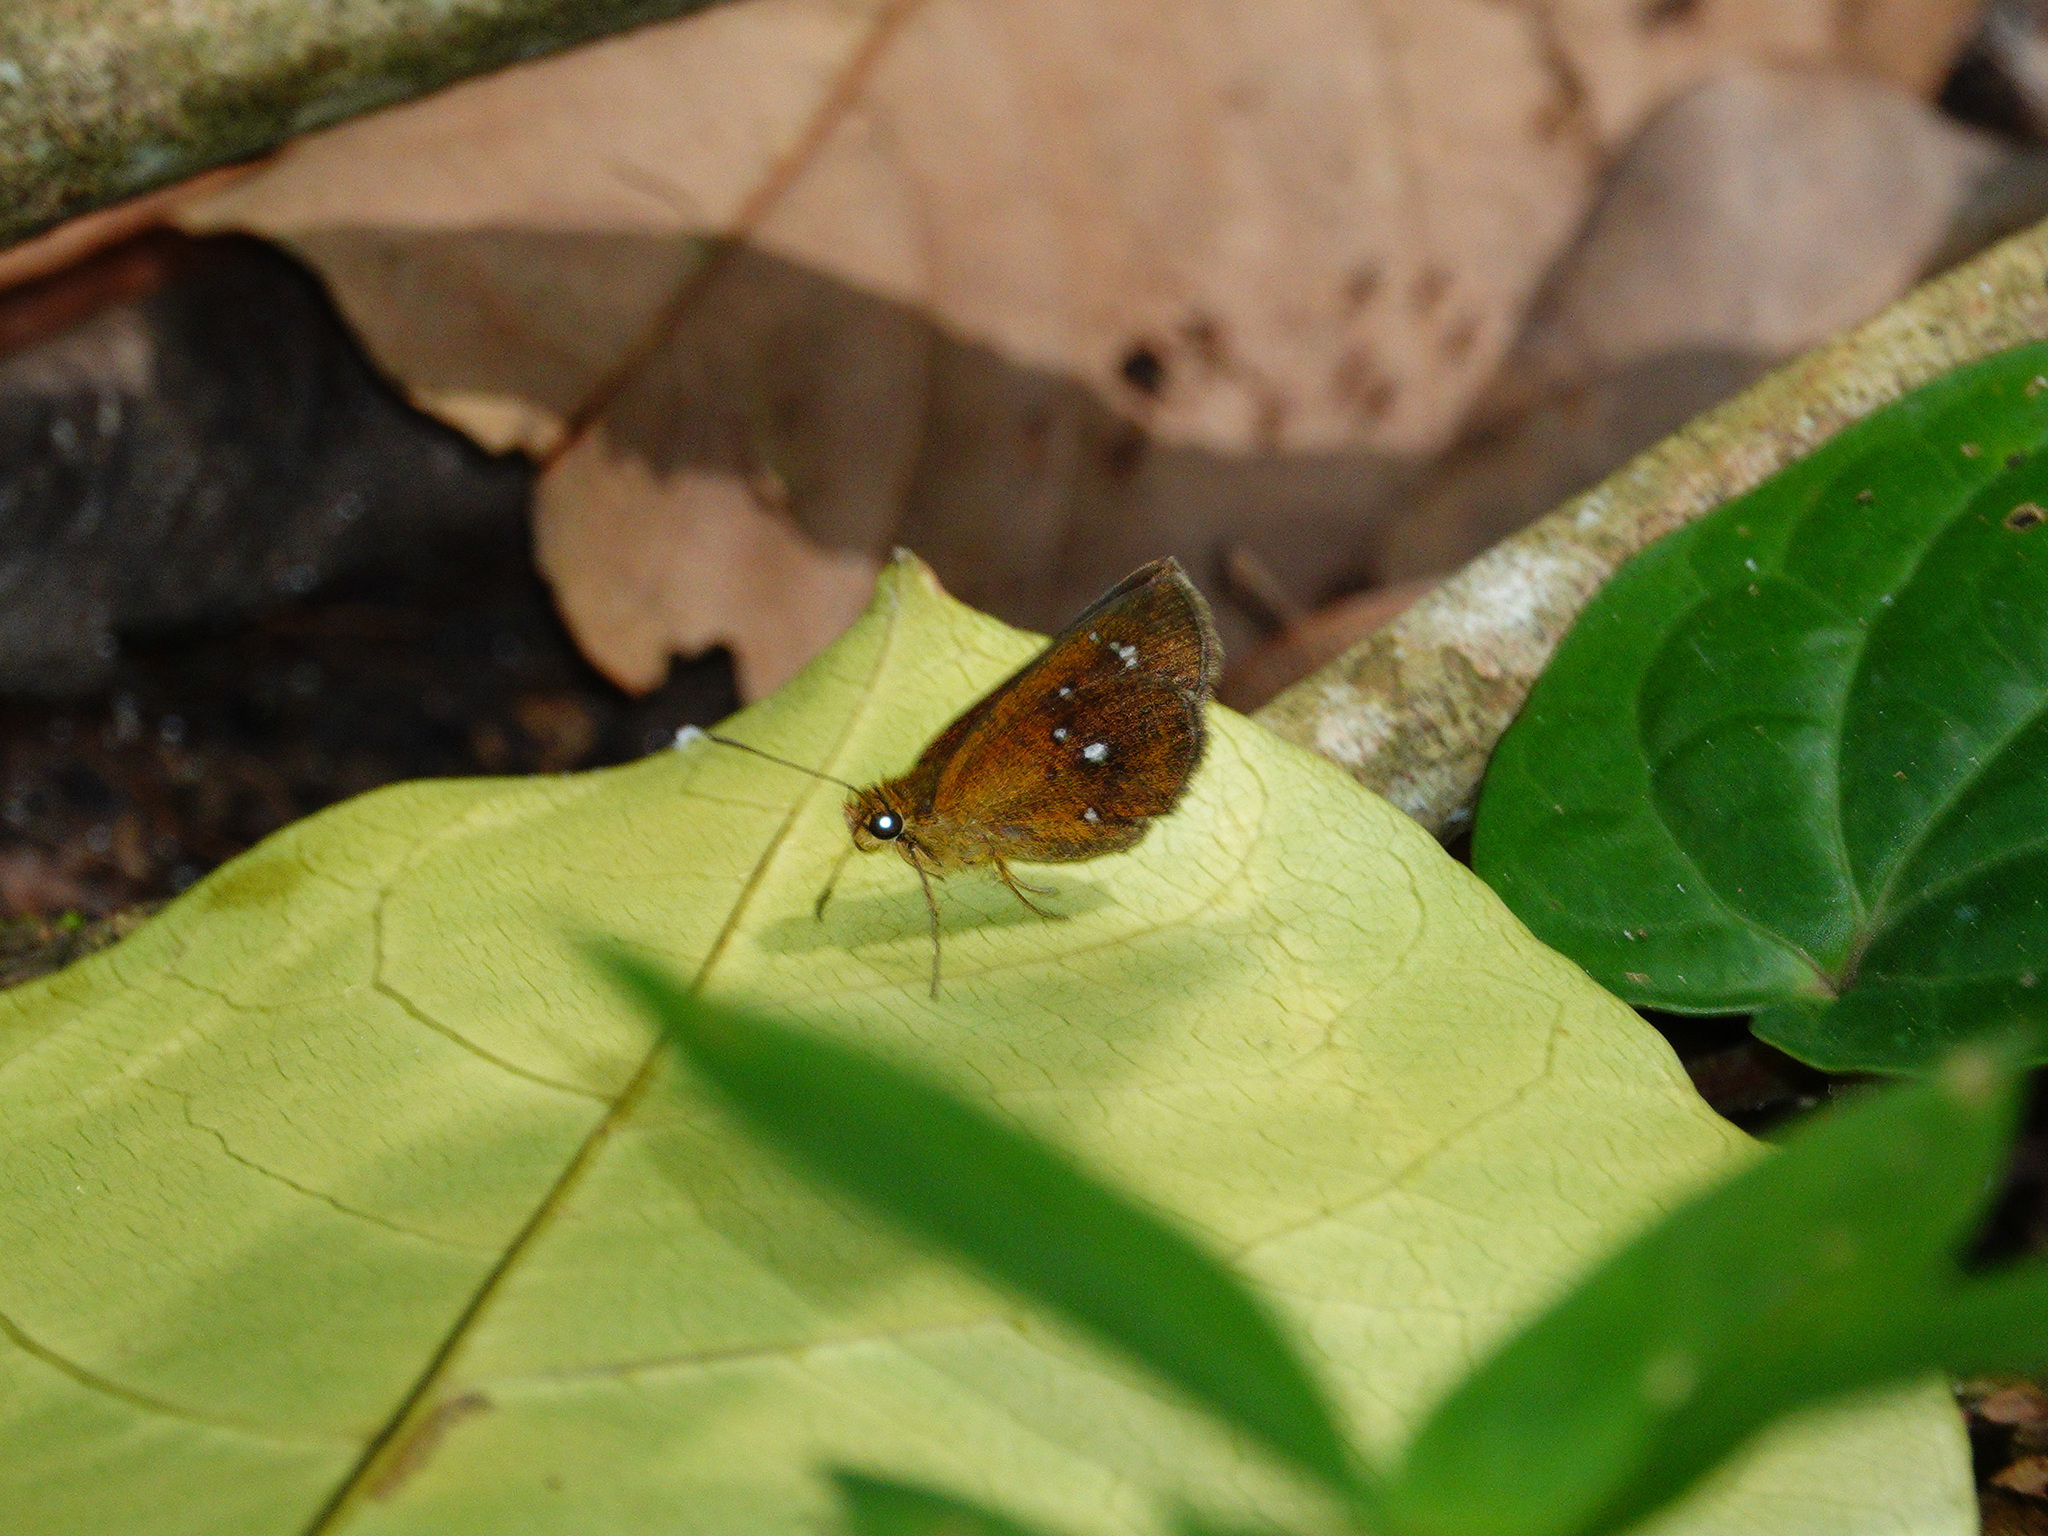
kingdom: Animalia
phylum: Arthropoda
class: Insecta
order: Lepidoptera
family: Hesperiidae
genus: Iambrix
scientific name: Iambrix salsala
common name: Chestnut bob
